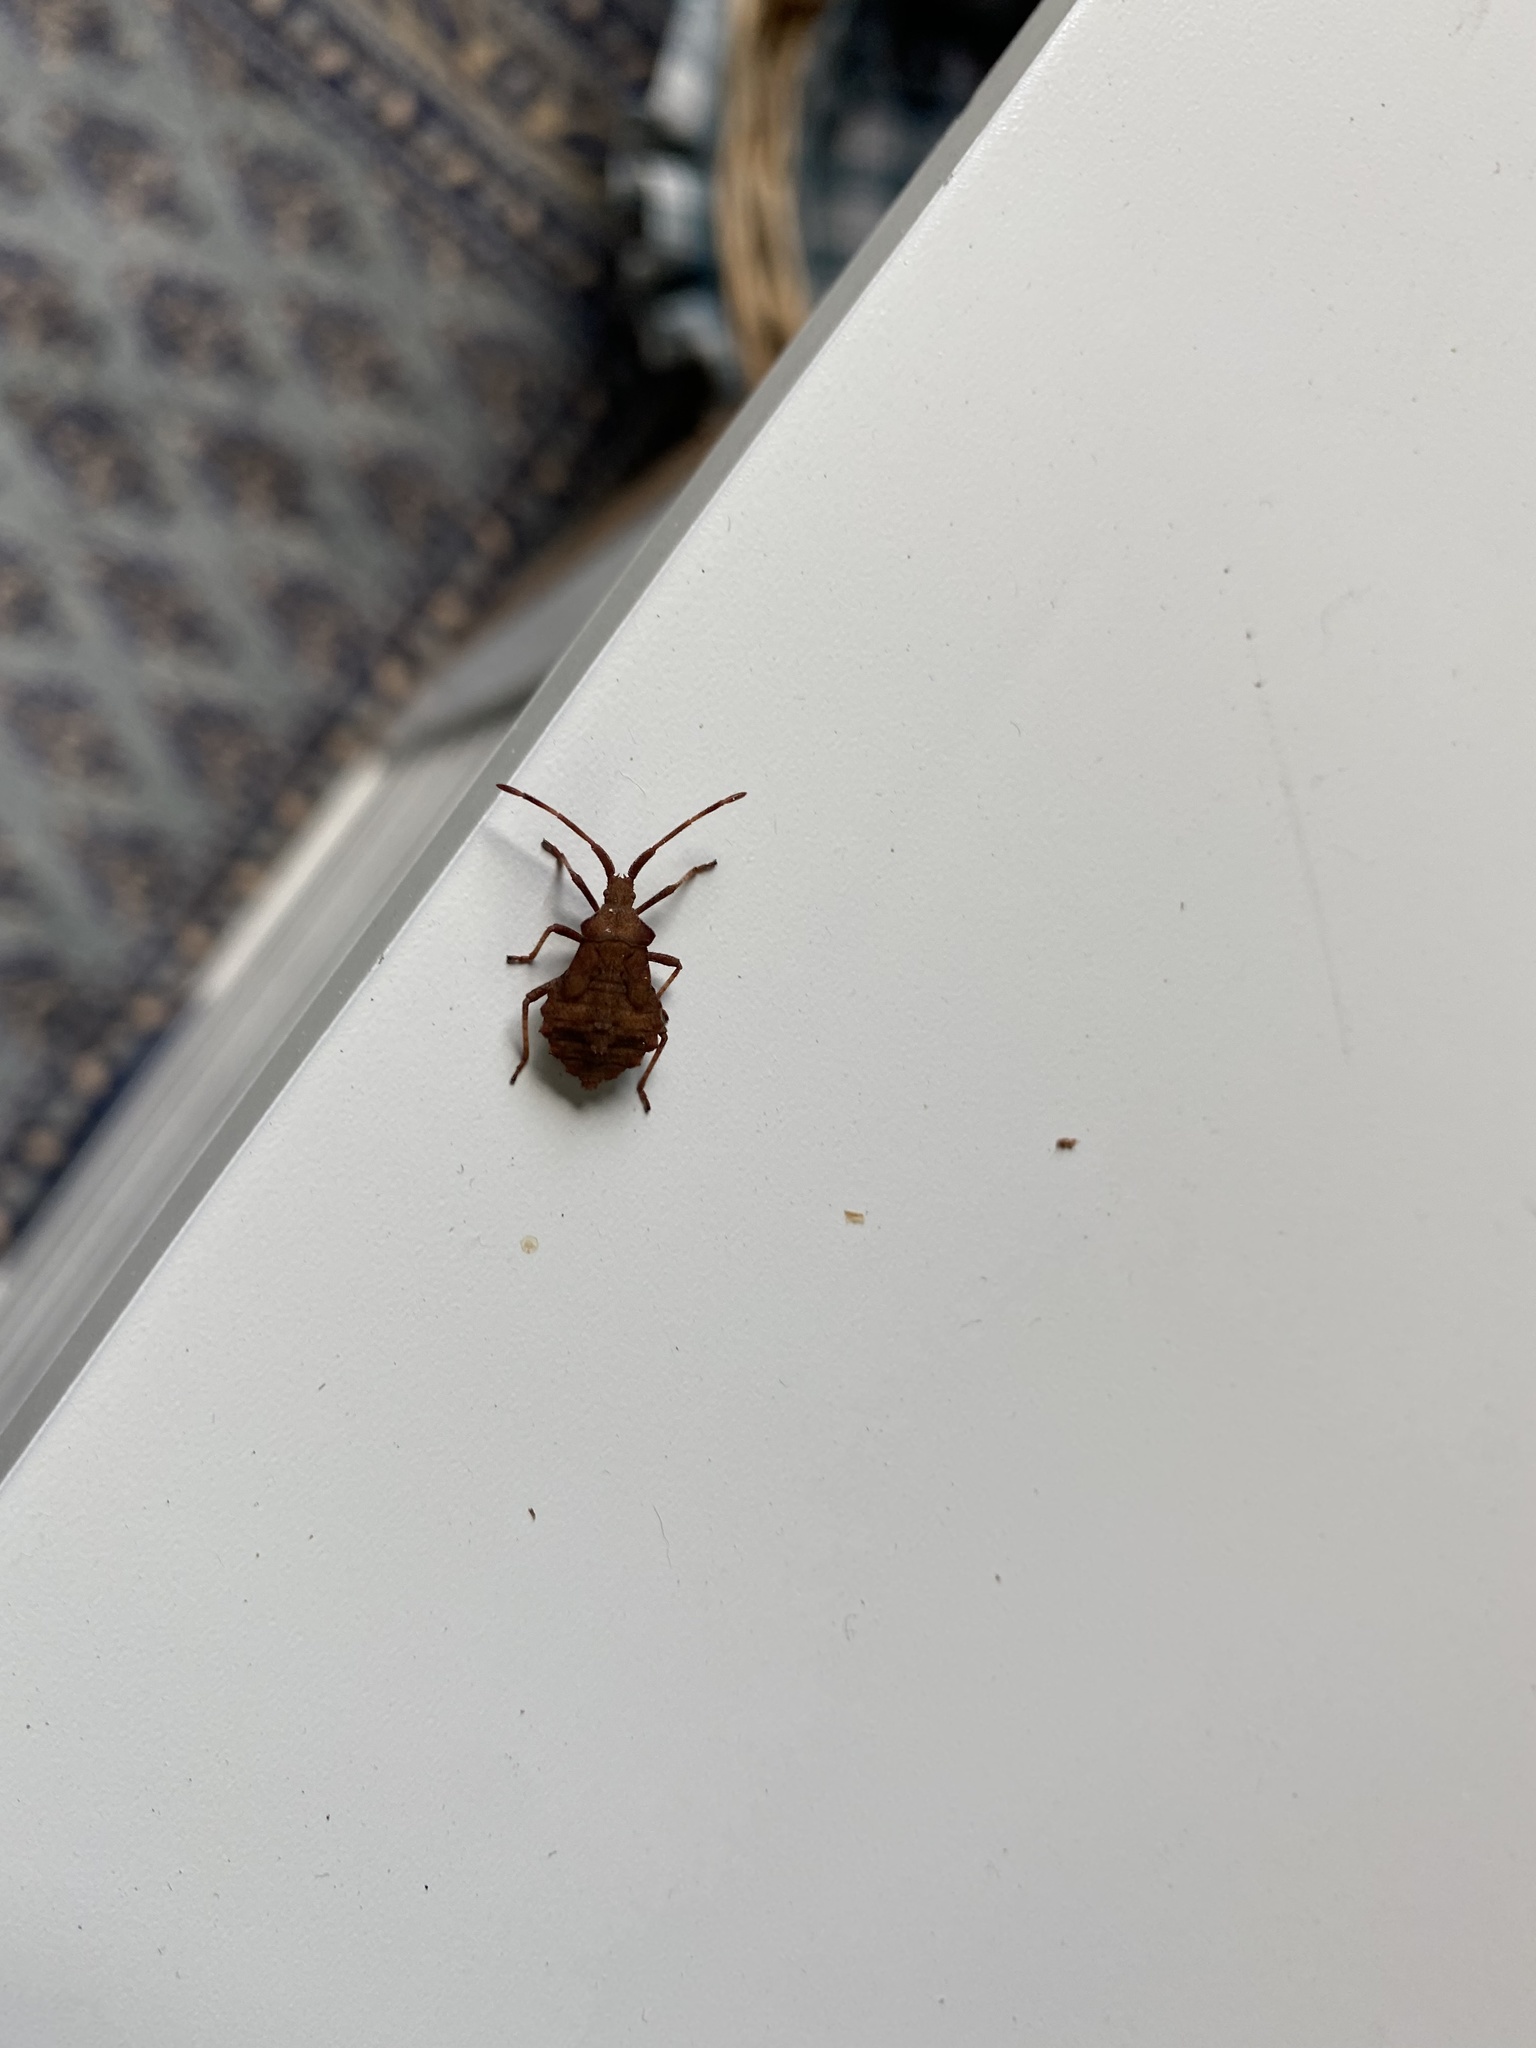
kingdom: Animalia
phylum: Arthropoda
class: Insecta
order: Hemiptera
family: Coreidae
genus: Coreus
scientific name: Coreus marginatus
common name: Dock bug
